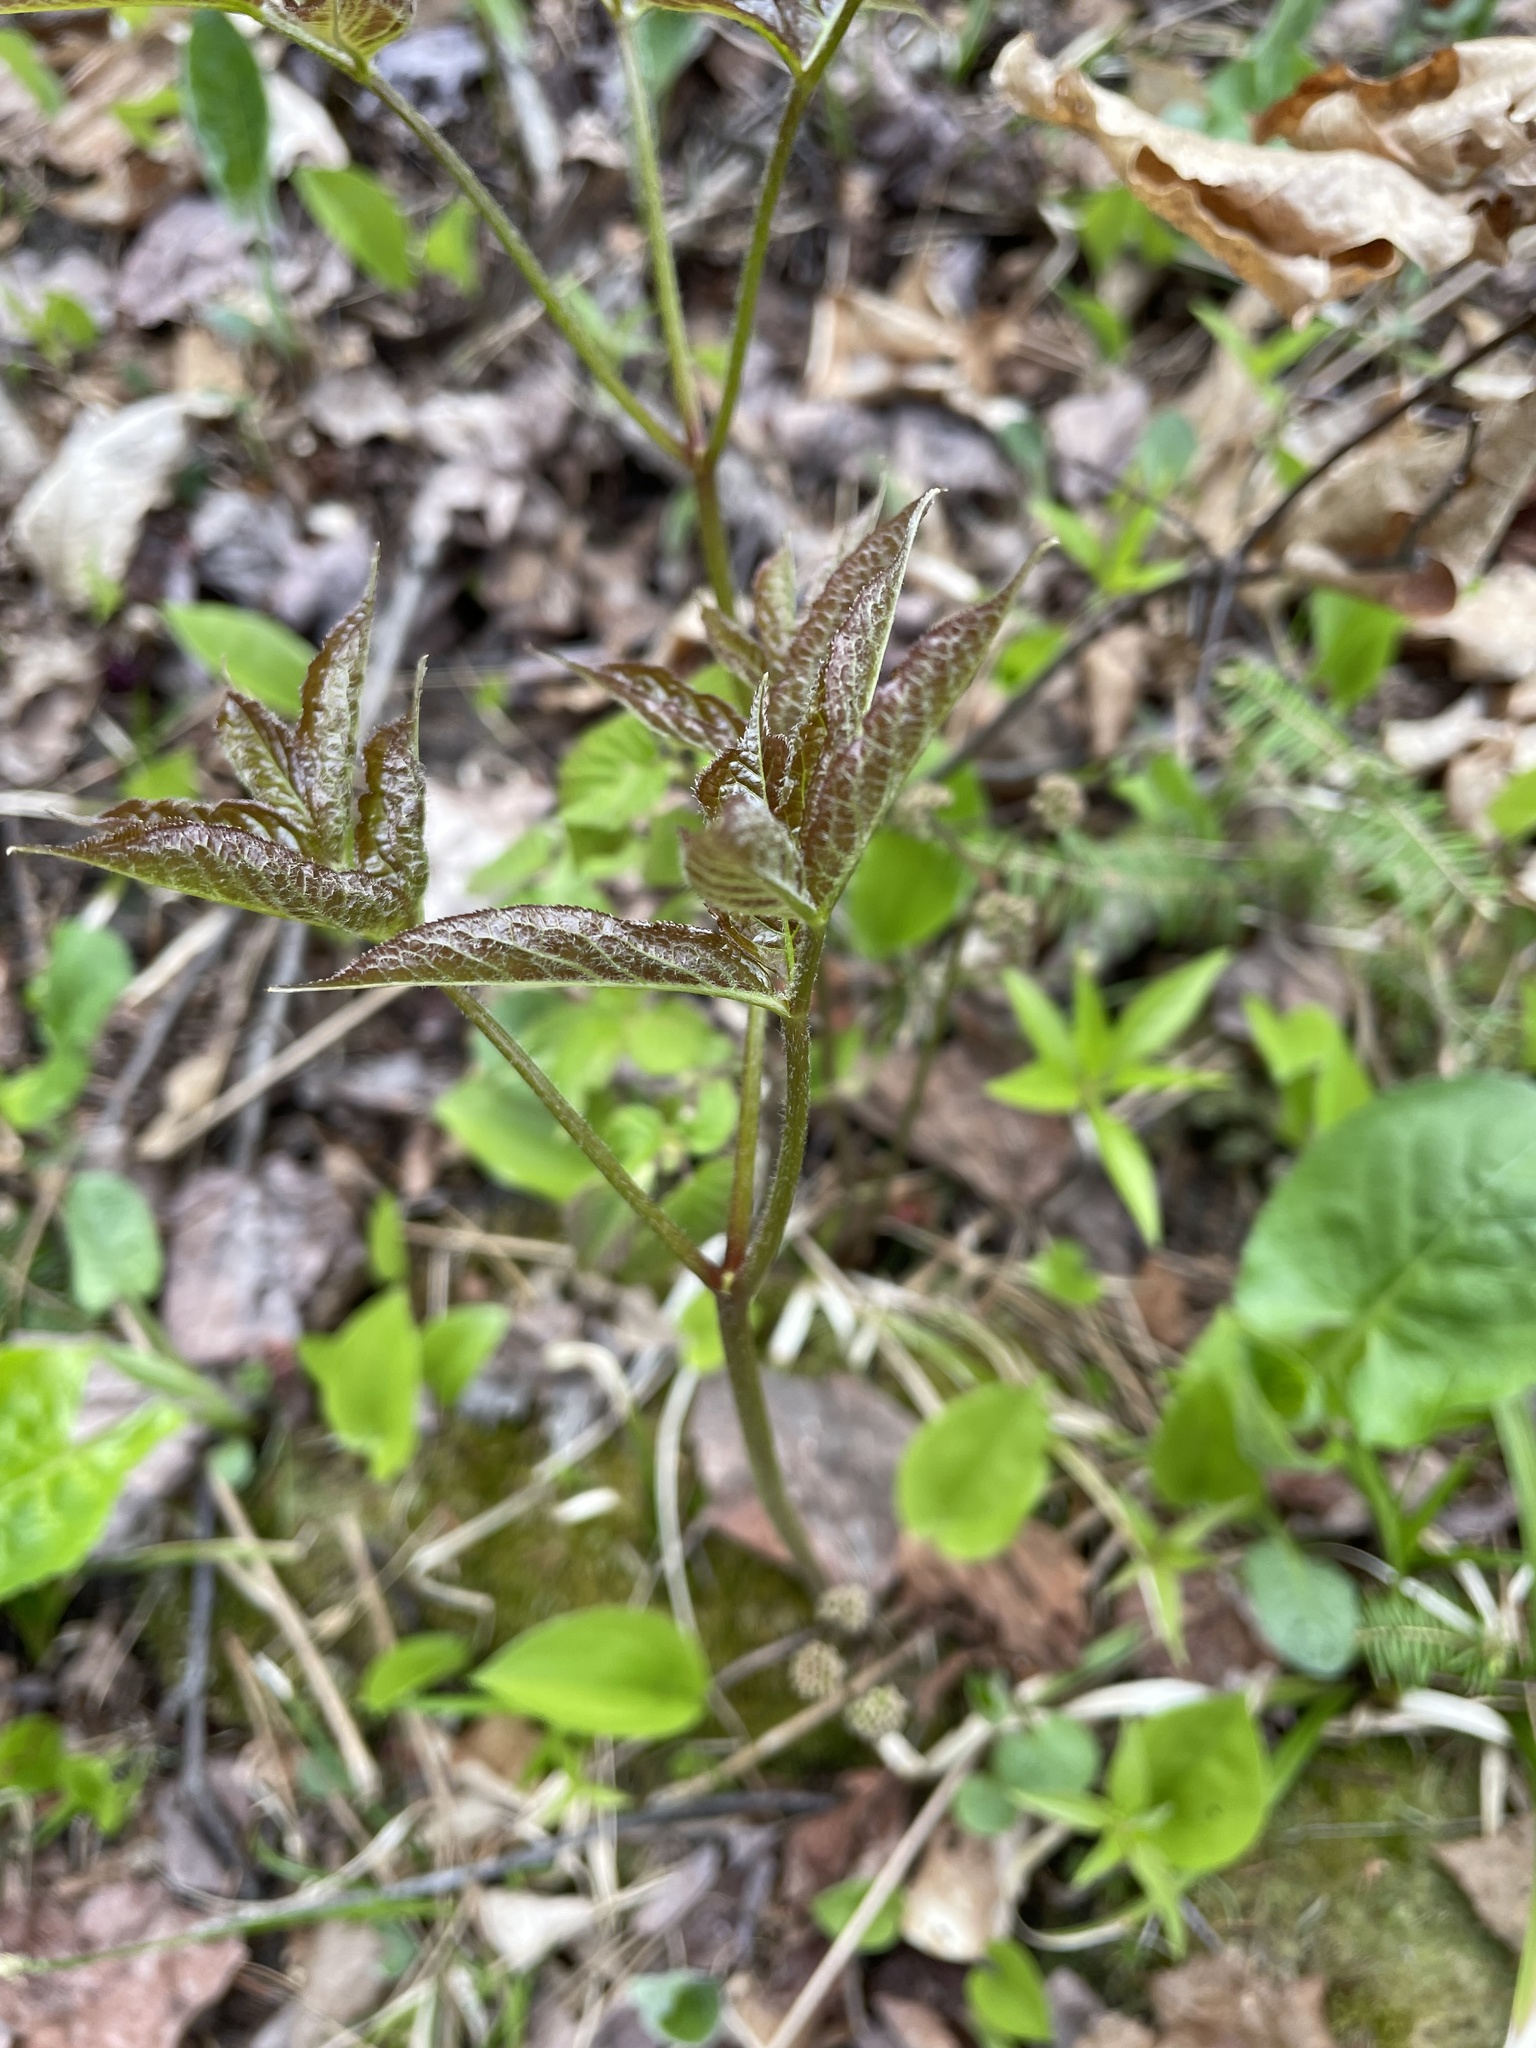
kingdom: Plantae
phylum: Tracheophyta
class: Magnoliopsida
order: Apiales
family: Araliaceae
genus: Aralia
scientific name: Aralia nudicaulis
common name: Wild sarsaparilla
